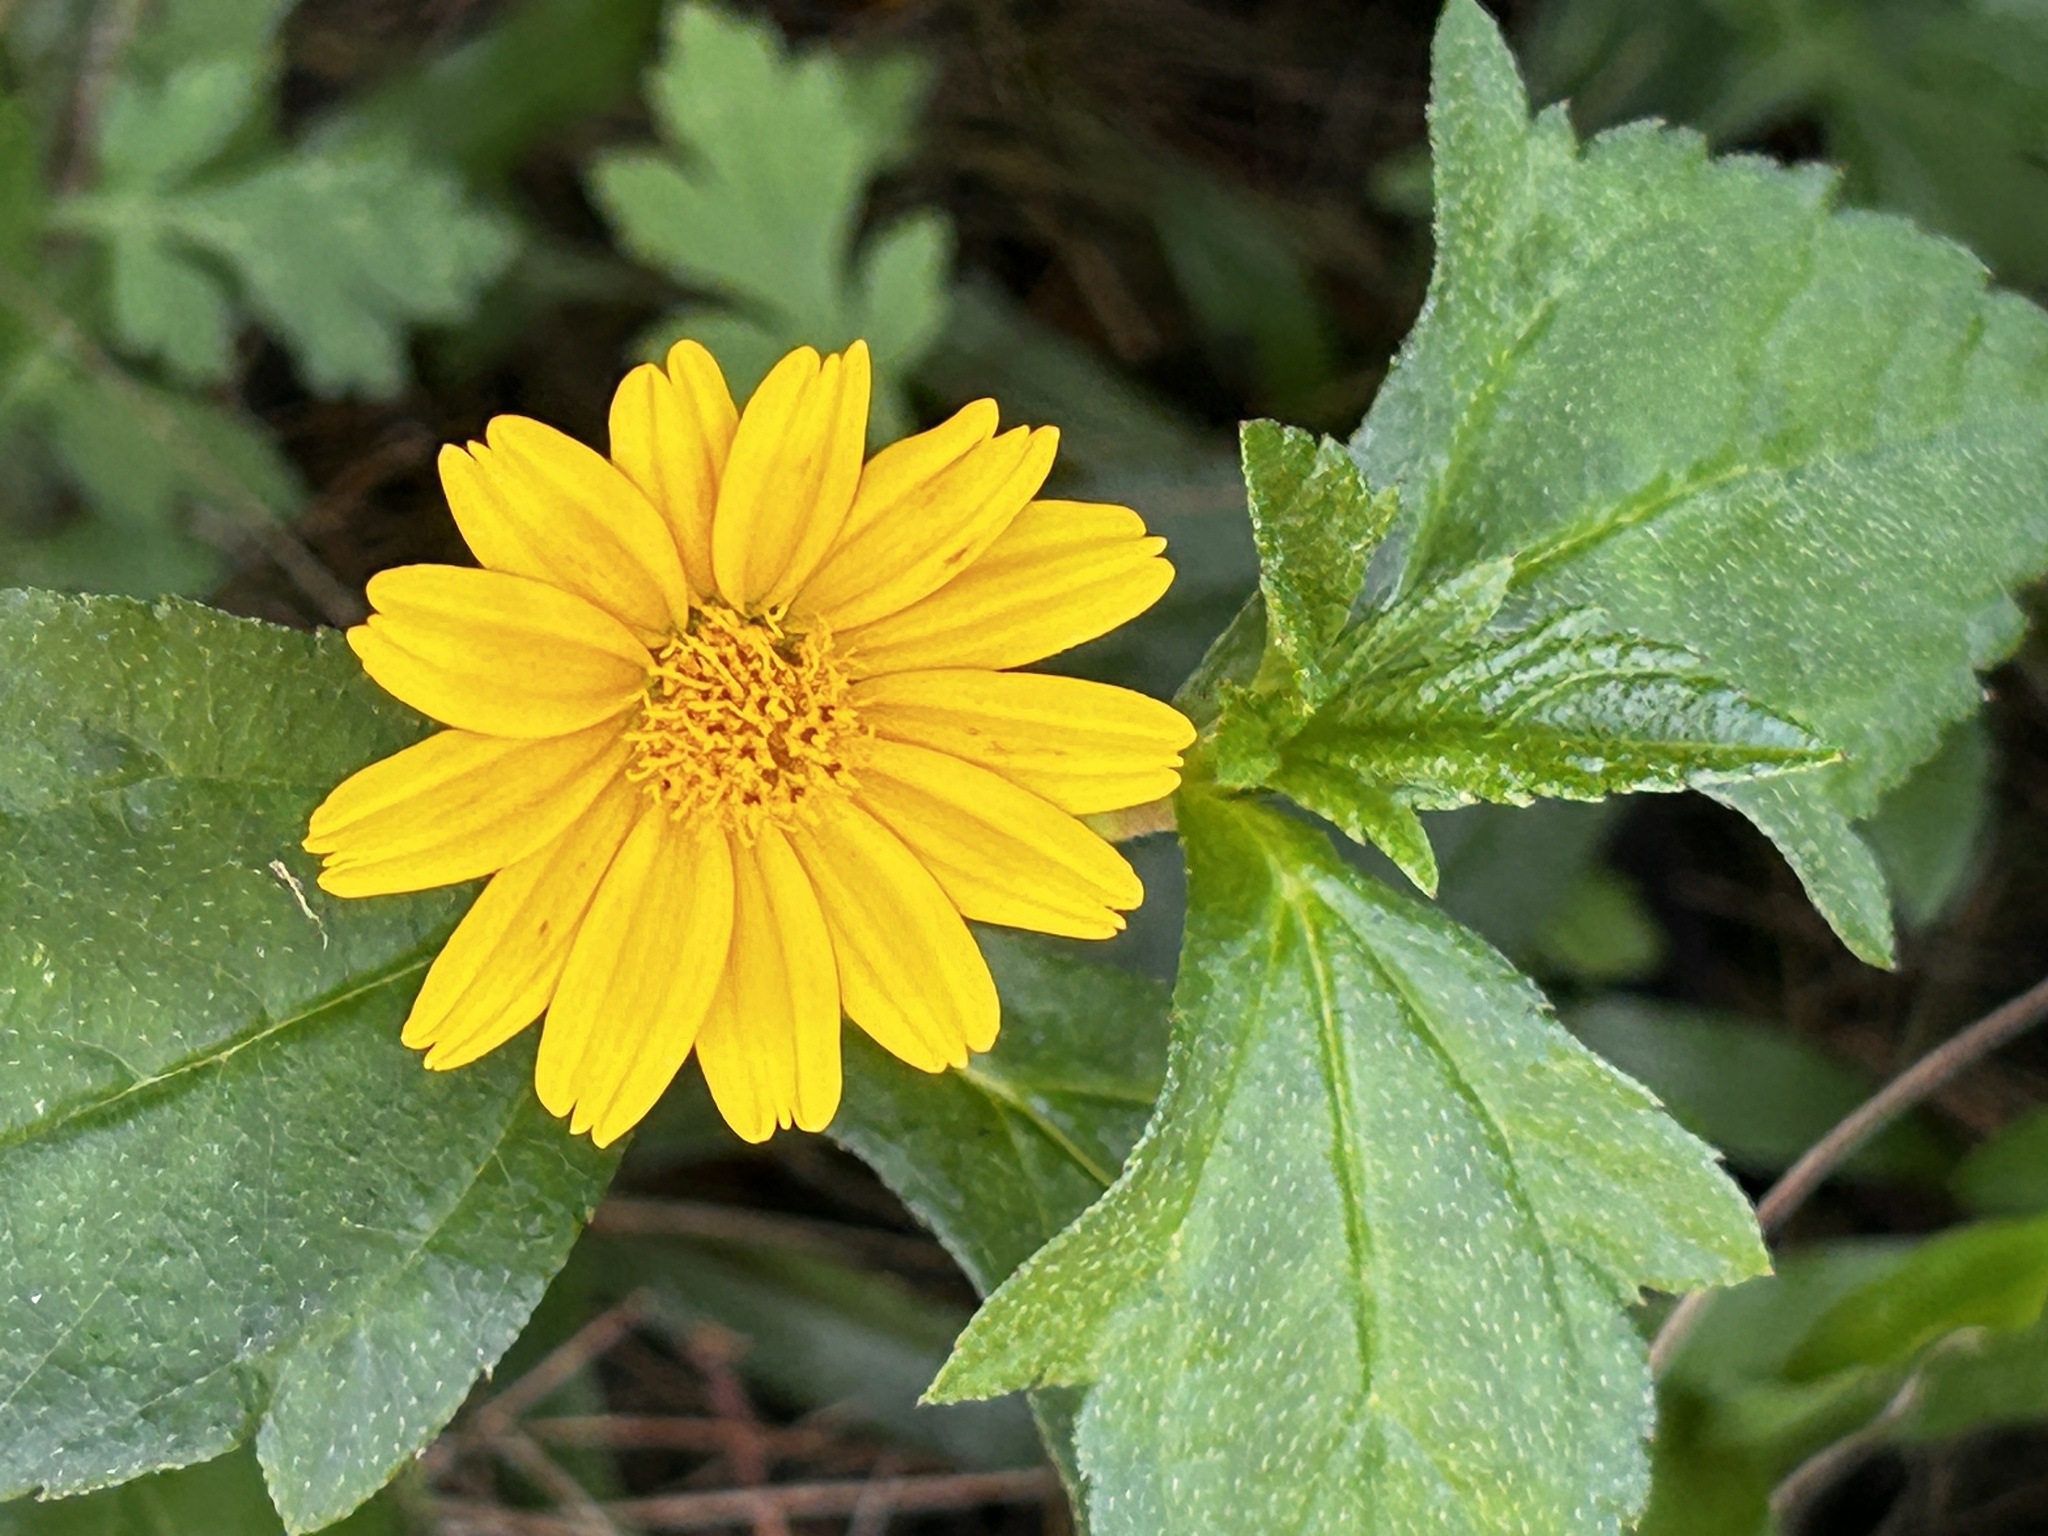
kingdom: Plantae
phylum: Tracheophyta
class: Magnoliopsida
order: Asterales
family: Asteraceae
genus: Sphagneticola
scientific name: Sphagneticola trilobata
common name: Bay biscayne creeping-oxeye
